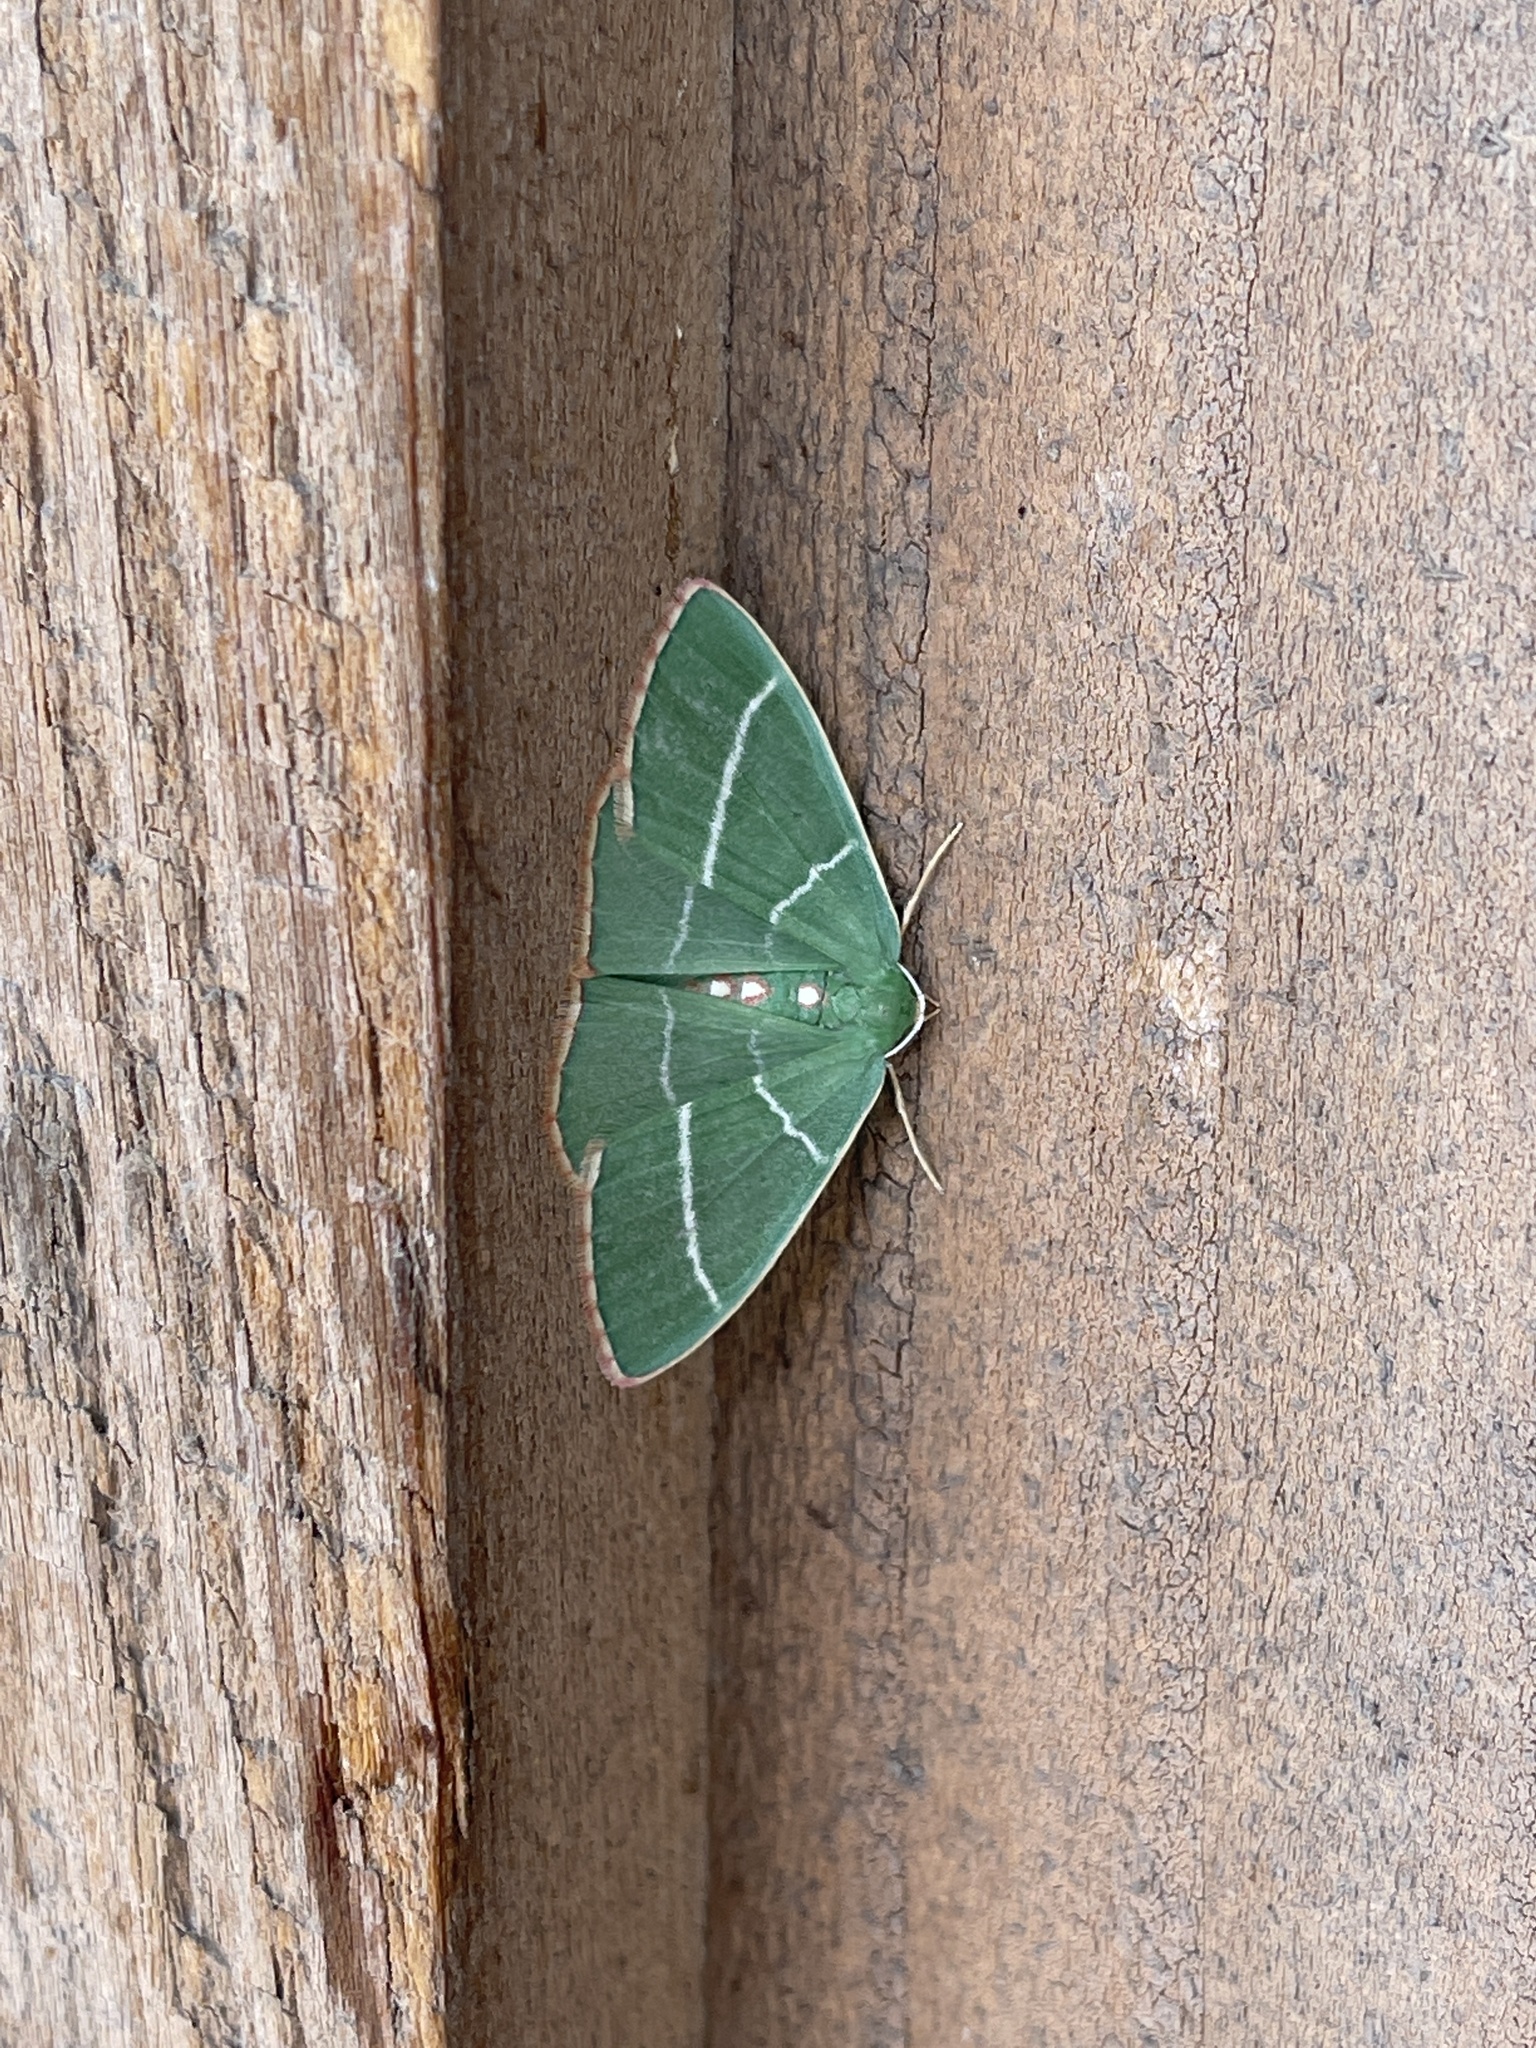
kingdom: Animalia
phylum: Arthropoda
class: Insecta
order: Lepidoptera
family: Geometridae
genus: Nemoria
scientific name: Nemoria obliqua
